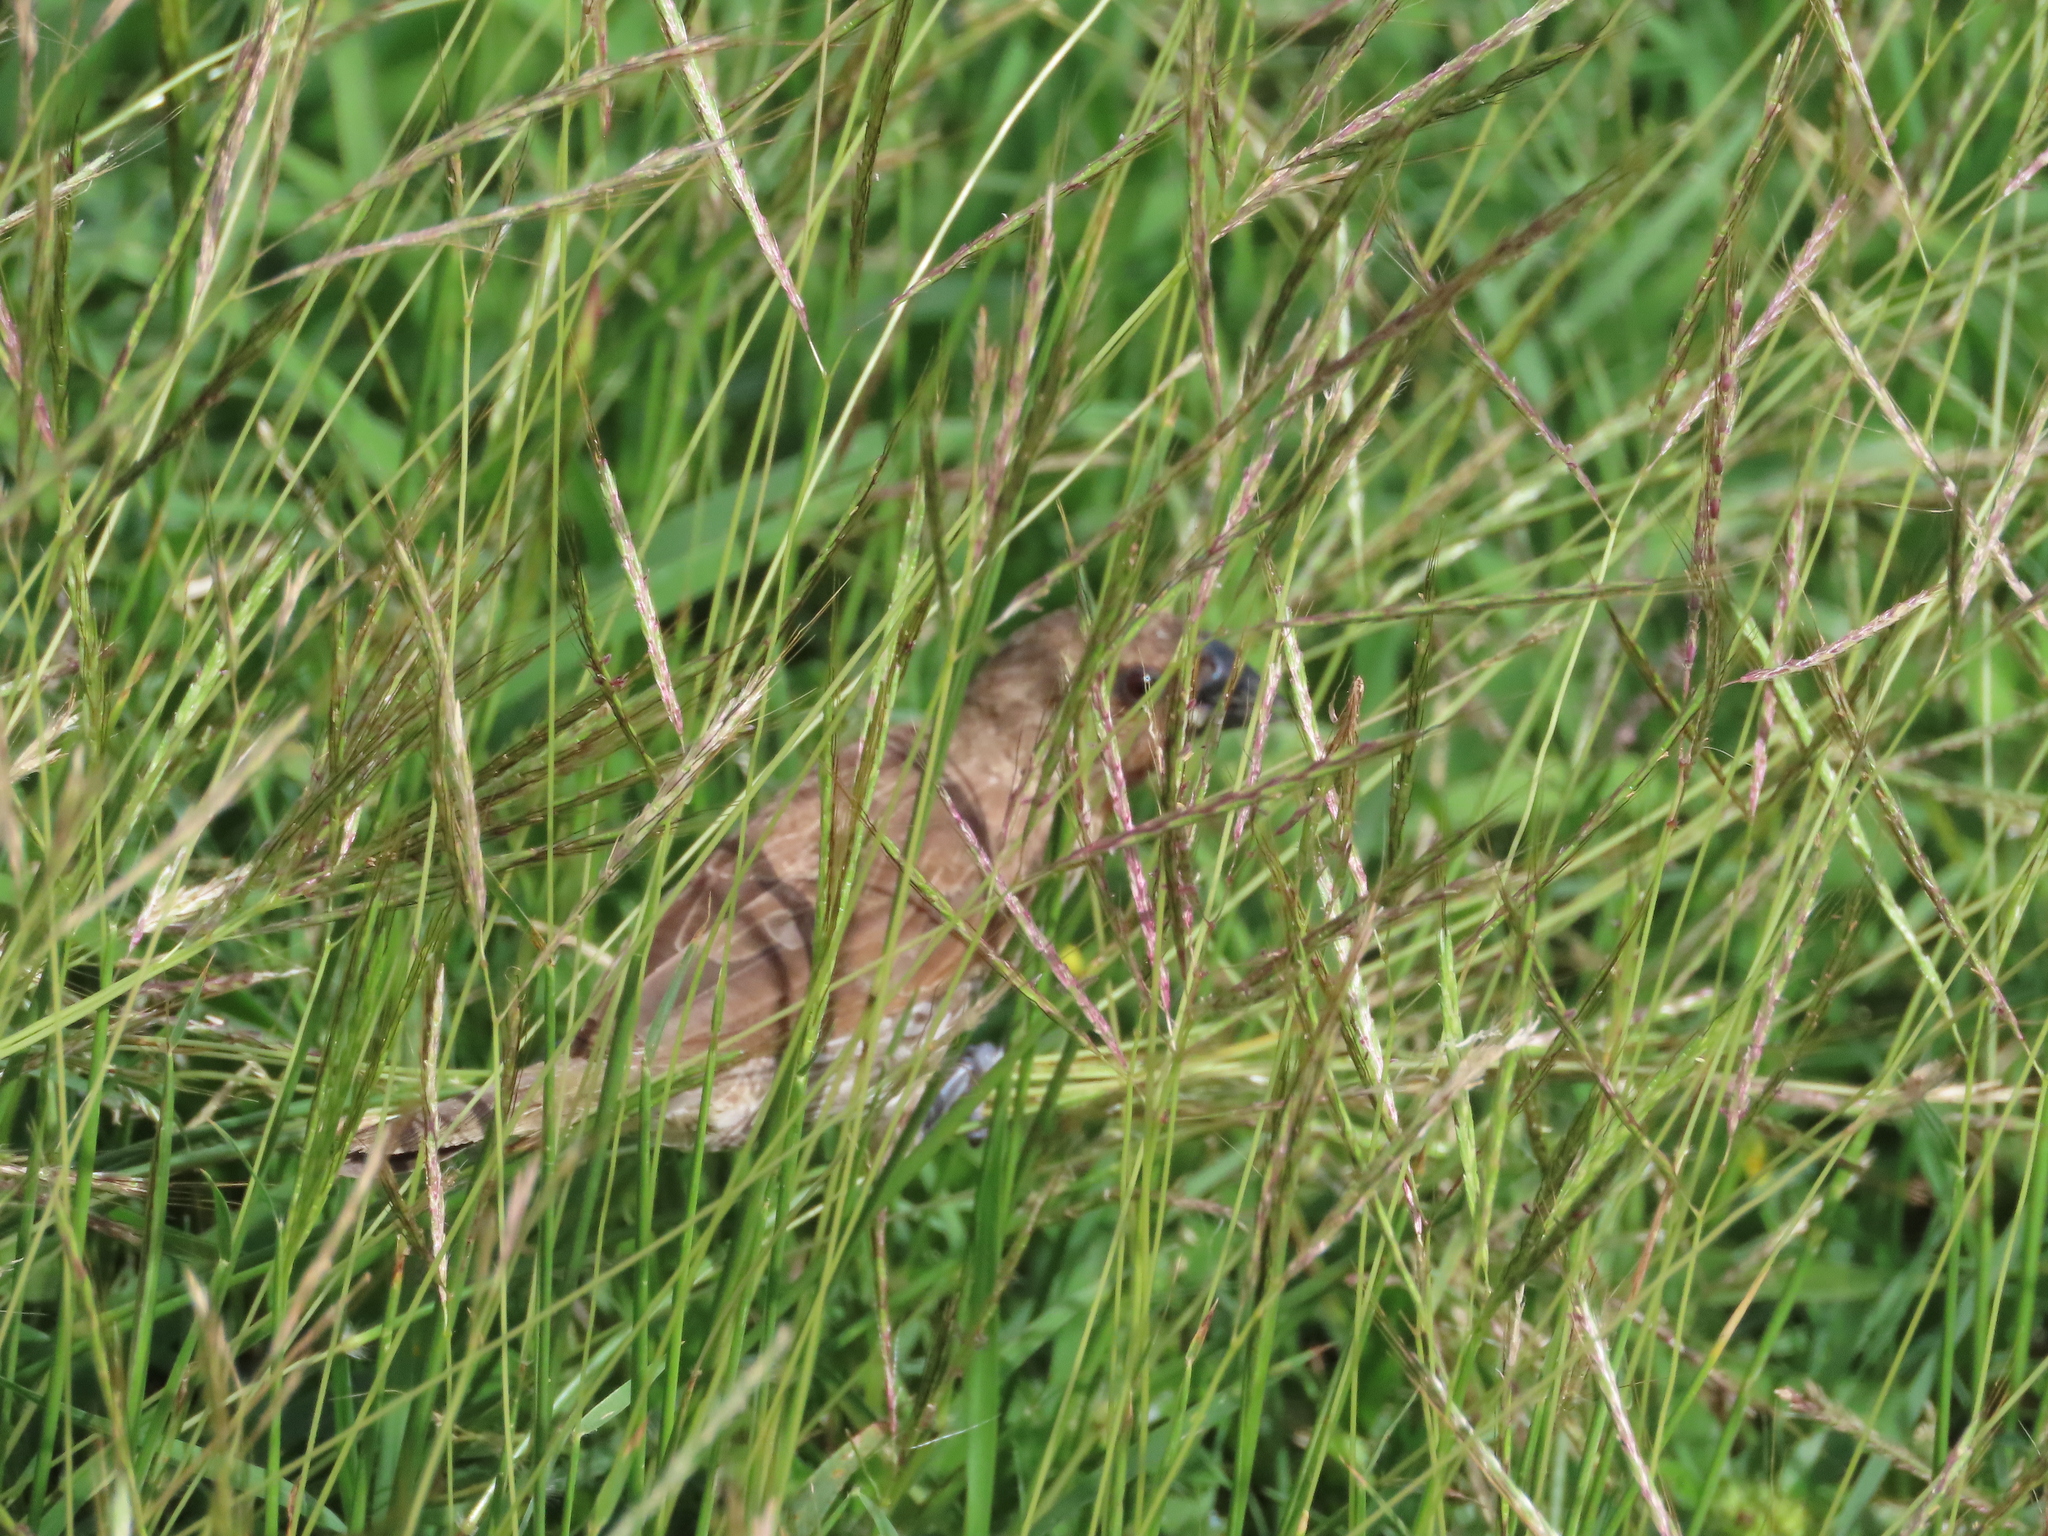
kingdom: Animalia
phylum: Chordata
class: Aves
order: Passeriformes
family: Estrildidae
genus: Lonchura
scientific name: Lonchura punctulata
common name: Scaly-breasted munia
